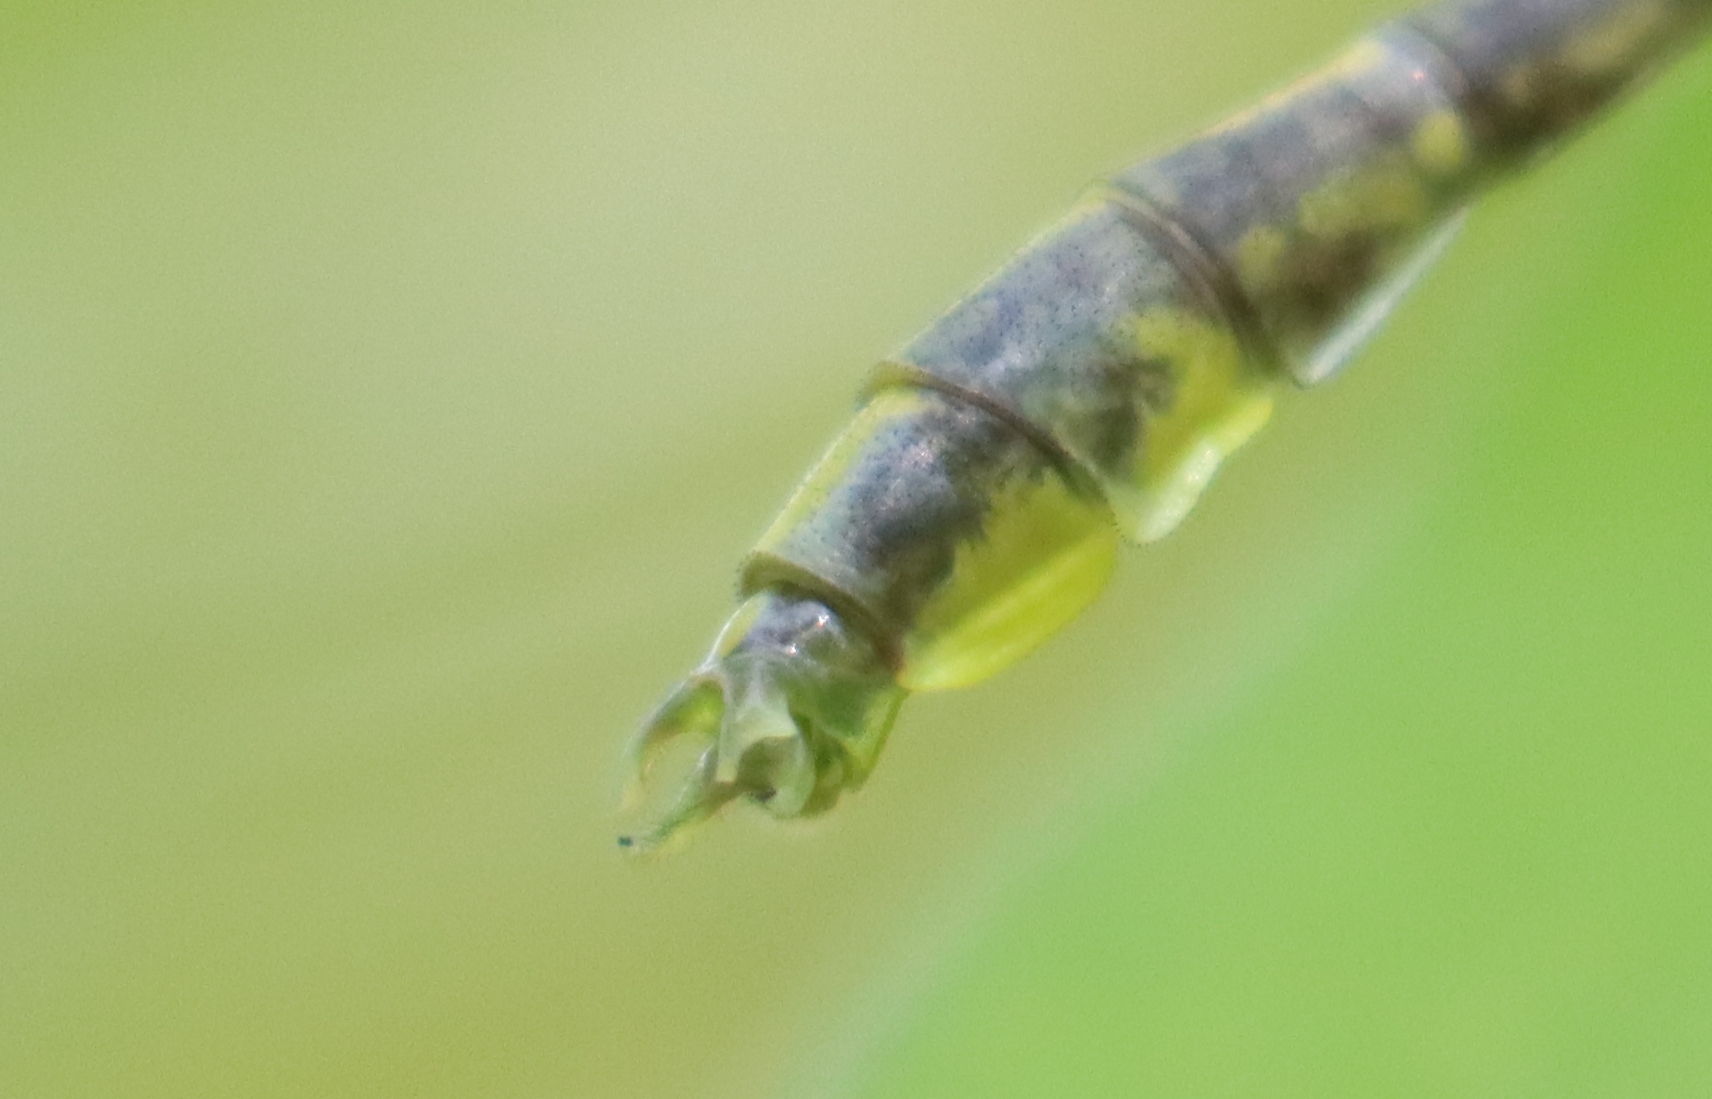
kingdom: Animalia
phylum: Arthropoda
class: Insecta
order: Odonata
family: Gomphidae
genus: Phanogomphus
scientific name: Phanogomphus graslinellus
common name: Pronghorn clubtail
